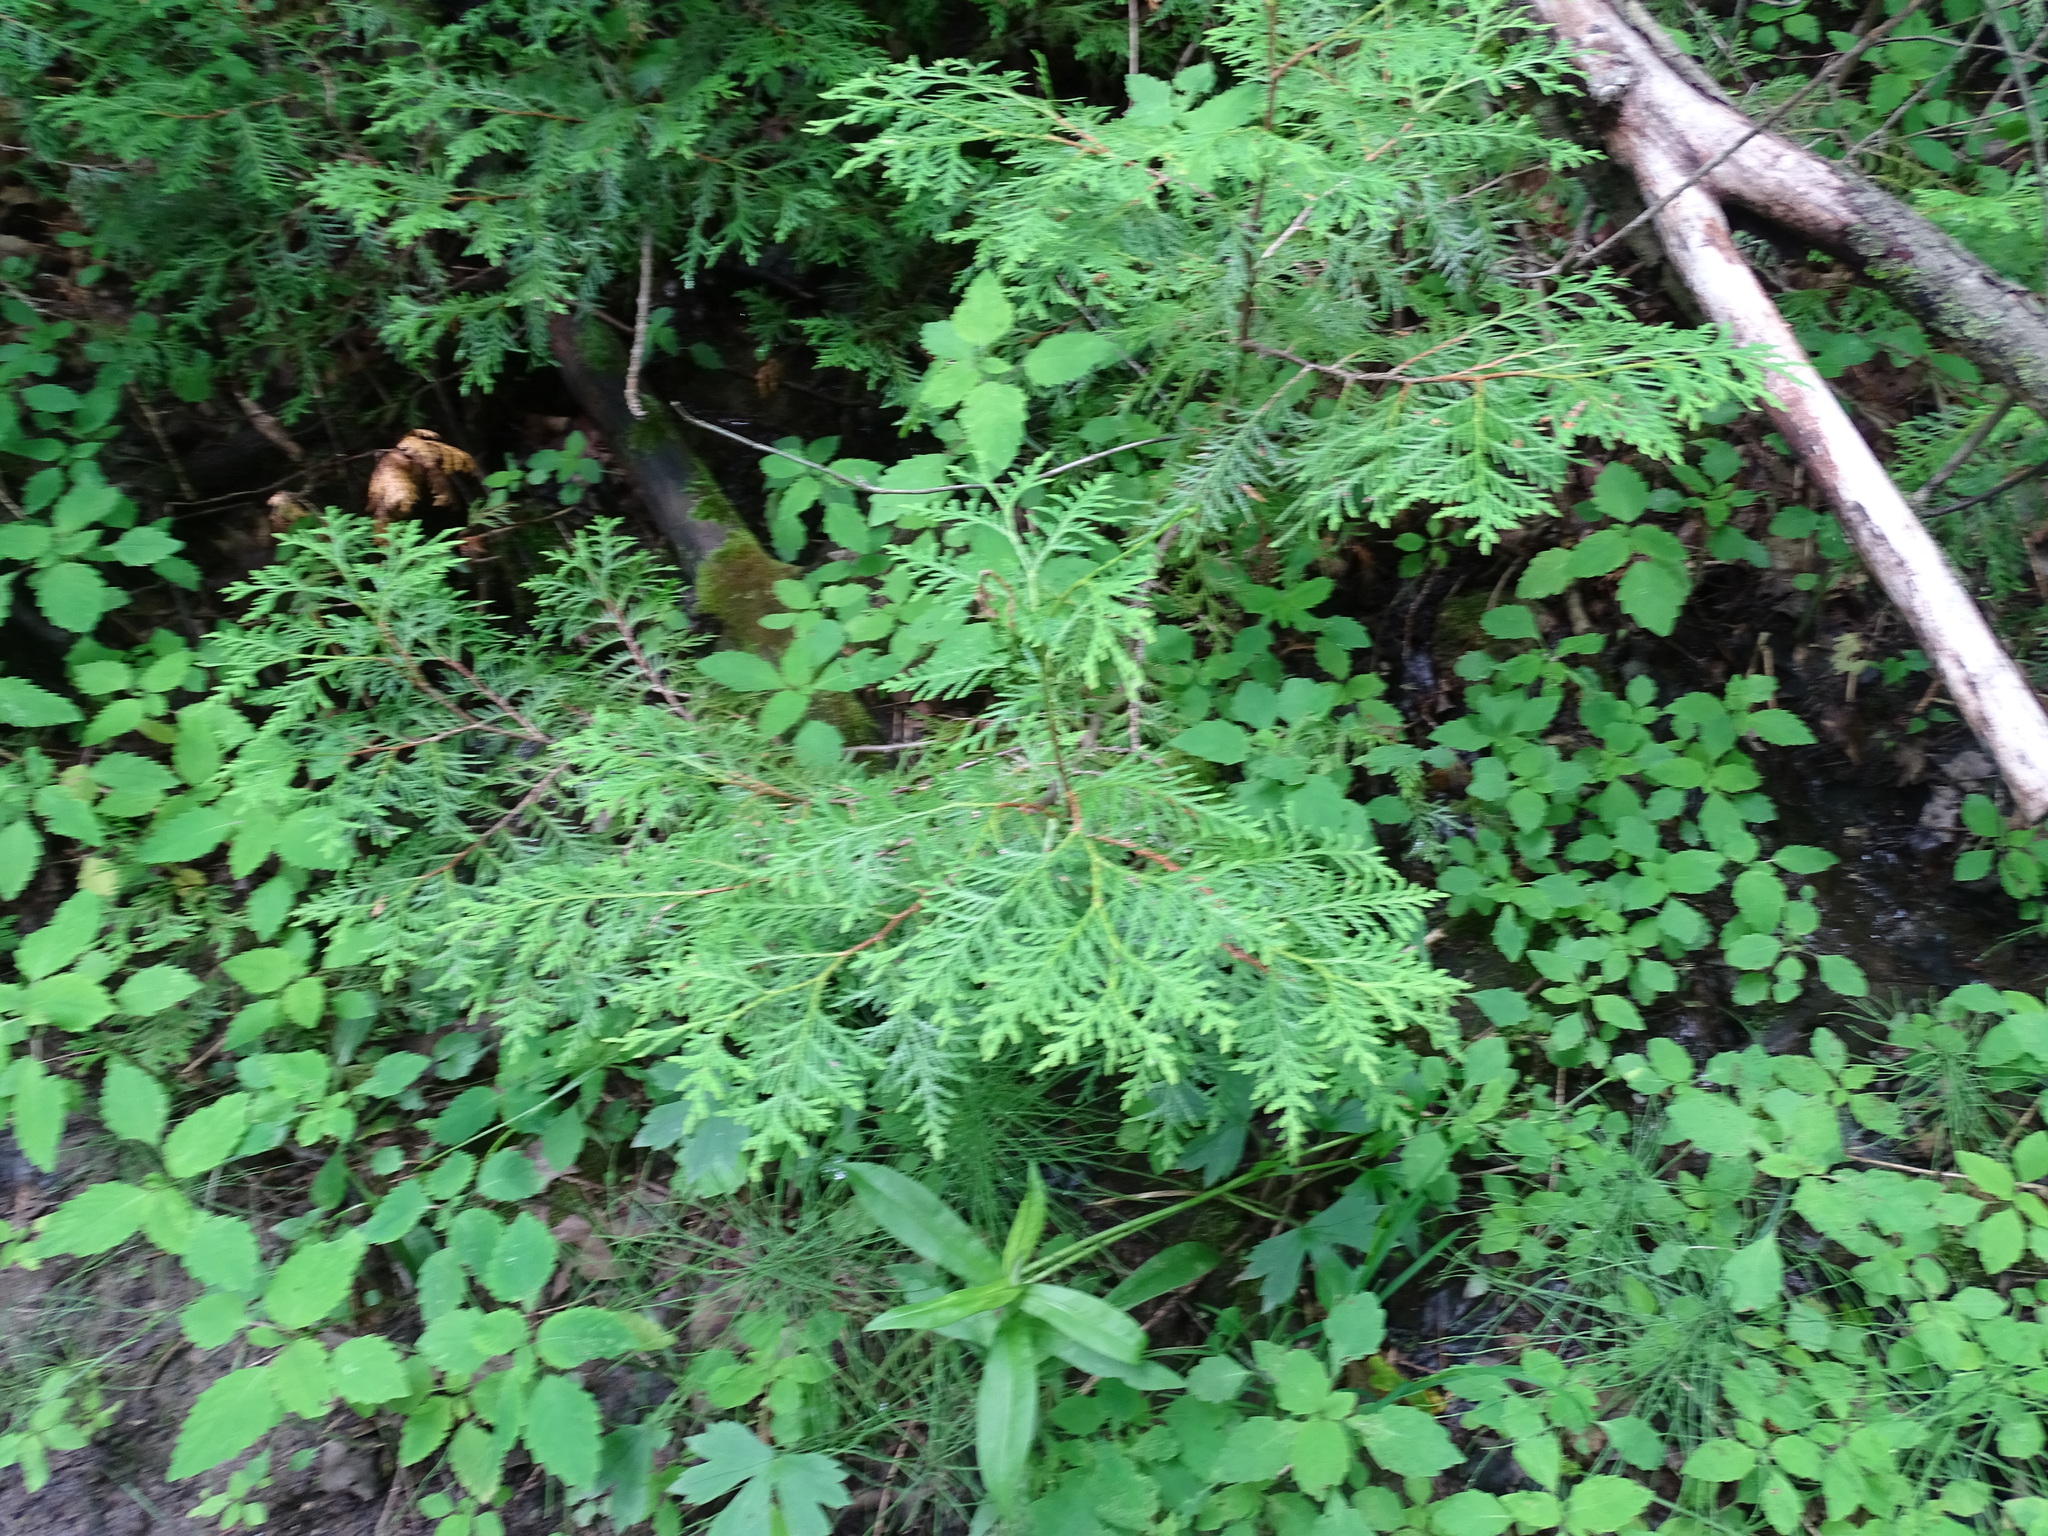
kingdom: Plantae
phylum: Tracheophyta
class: Pinopsida
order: Pinales
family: Cupressaceae
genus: Thuja
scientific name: Thuja occidentalis
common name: Northern white-cedar
